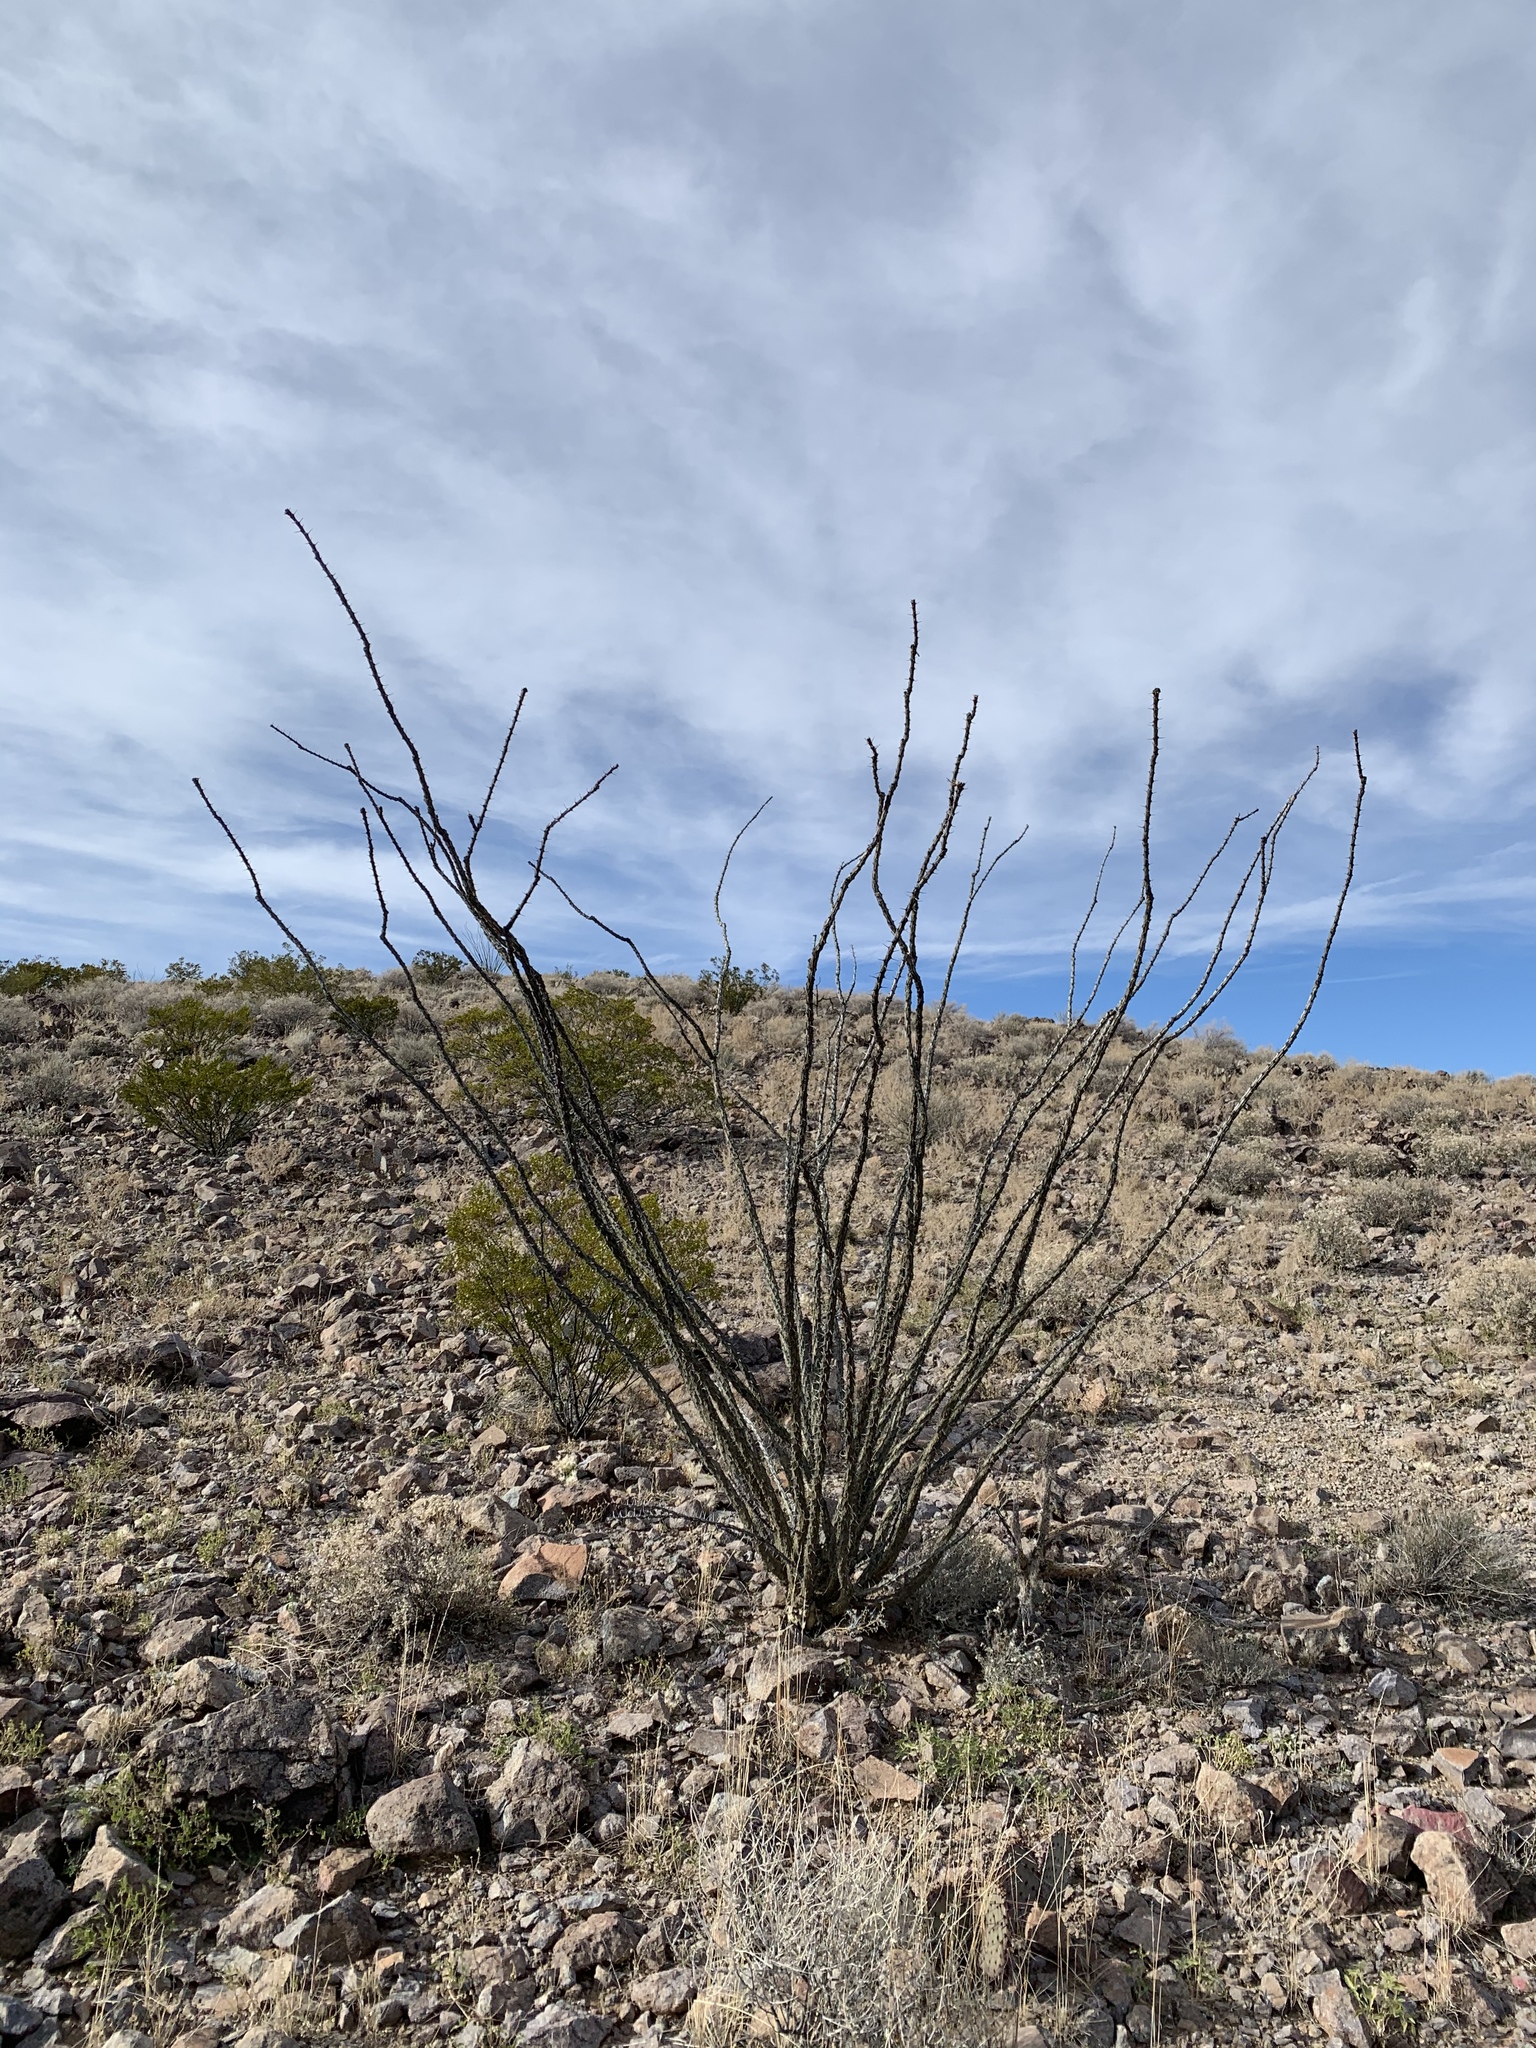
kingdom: Plantae
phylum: Tracheophyta
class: Magnoliopsida
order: Ericales
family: Fouquieriaceae
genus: Fouquieria
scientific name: Fouquieria splendens
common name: Vine-cactus
